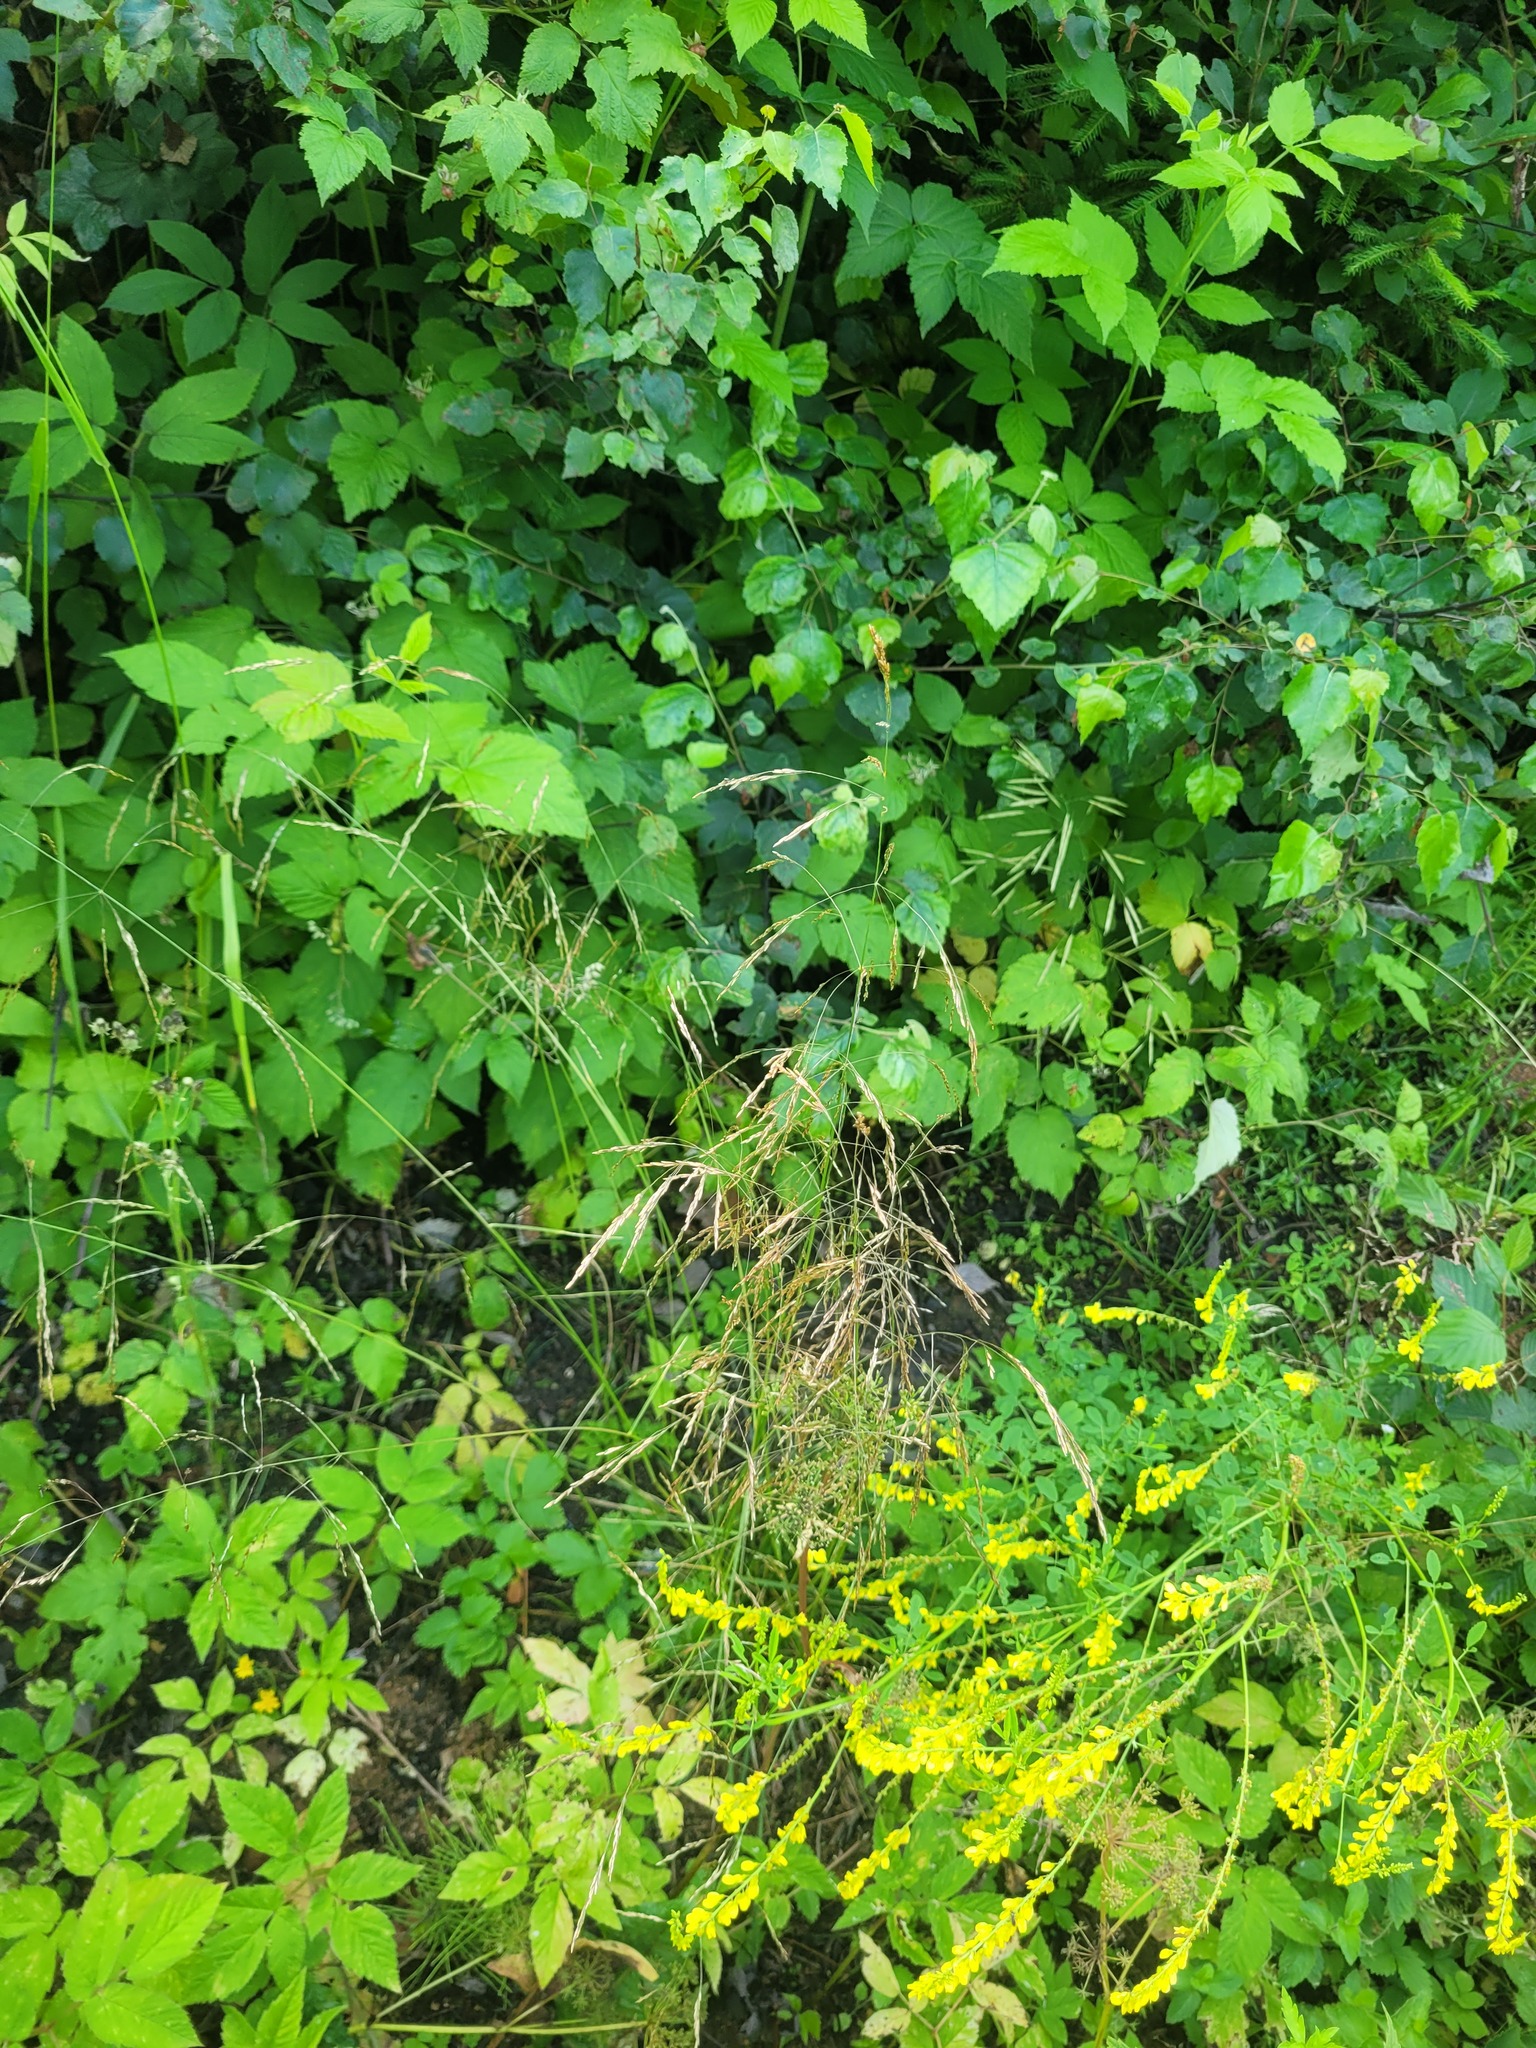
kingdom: Plantae
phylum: Tracheophyta
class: Liliopsida
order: Poales
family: Poaceae
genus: Deschampsia
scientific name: Deschampsia cespitosa
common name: Tufted hair-grass
